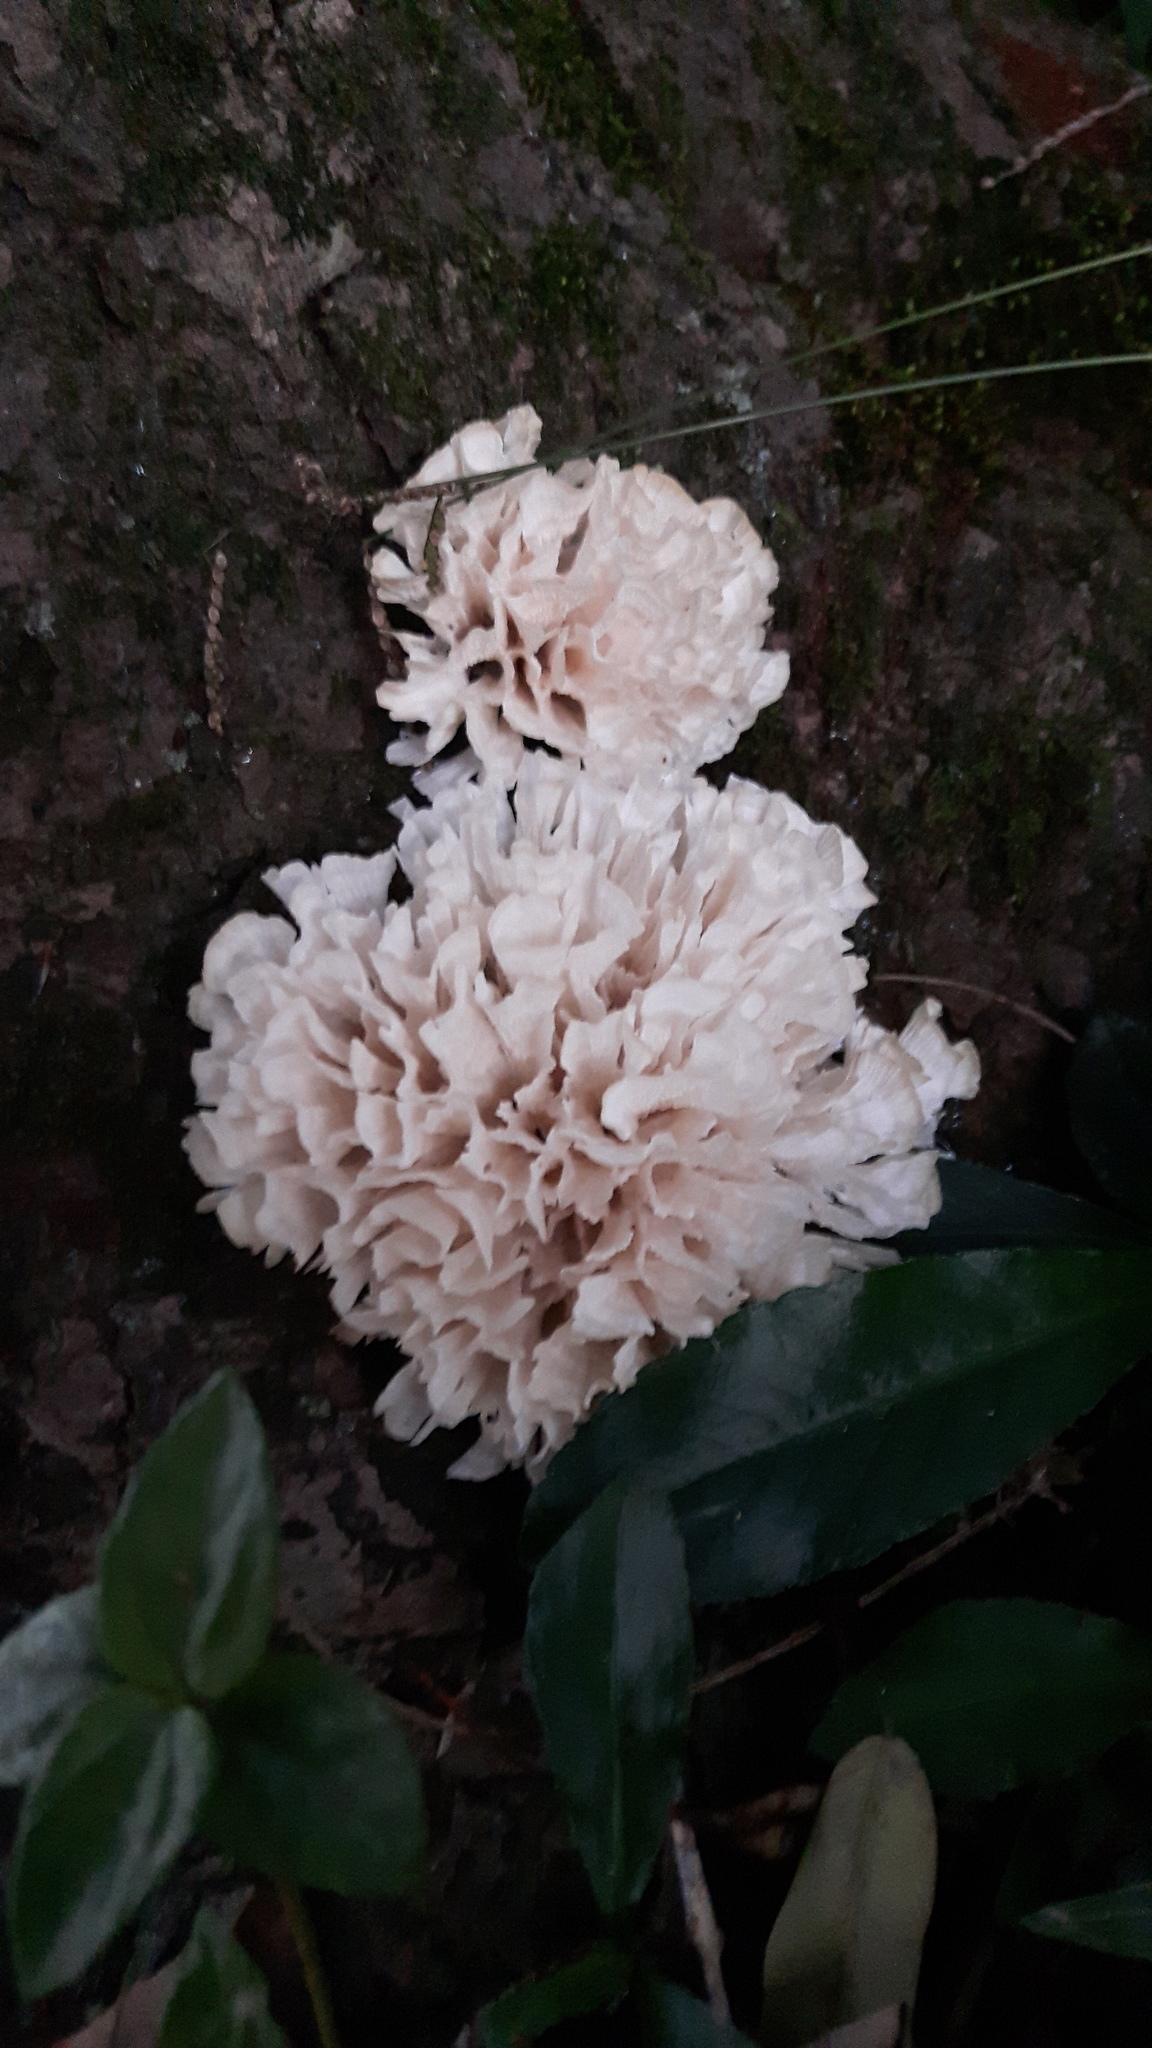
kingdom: Fungi
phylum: Basidiomycota
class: Agaricomycetes
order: Polyporales
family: Irpicaceae
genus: Irpex
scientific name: Irpex rosettiformis
